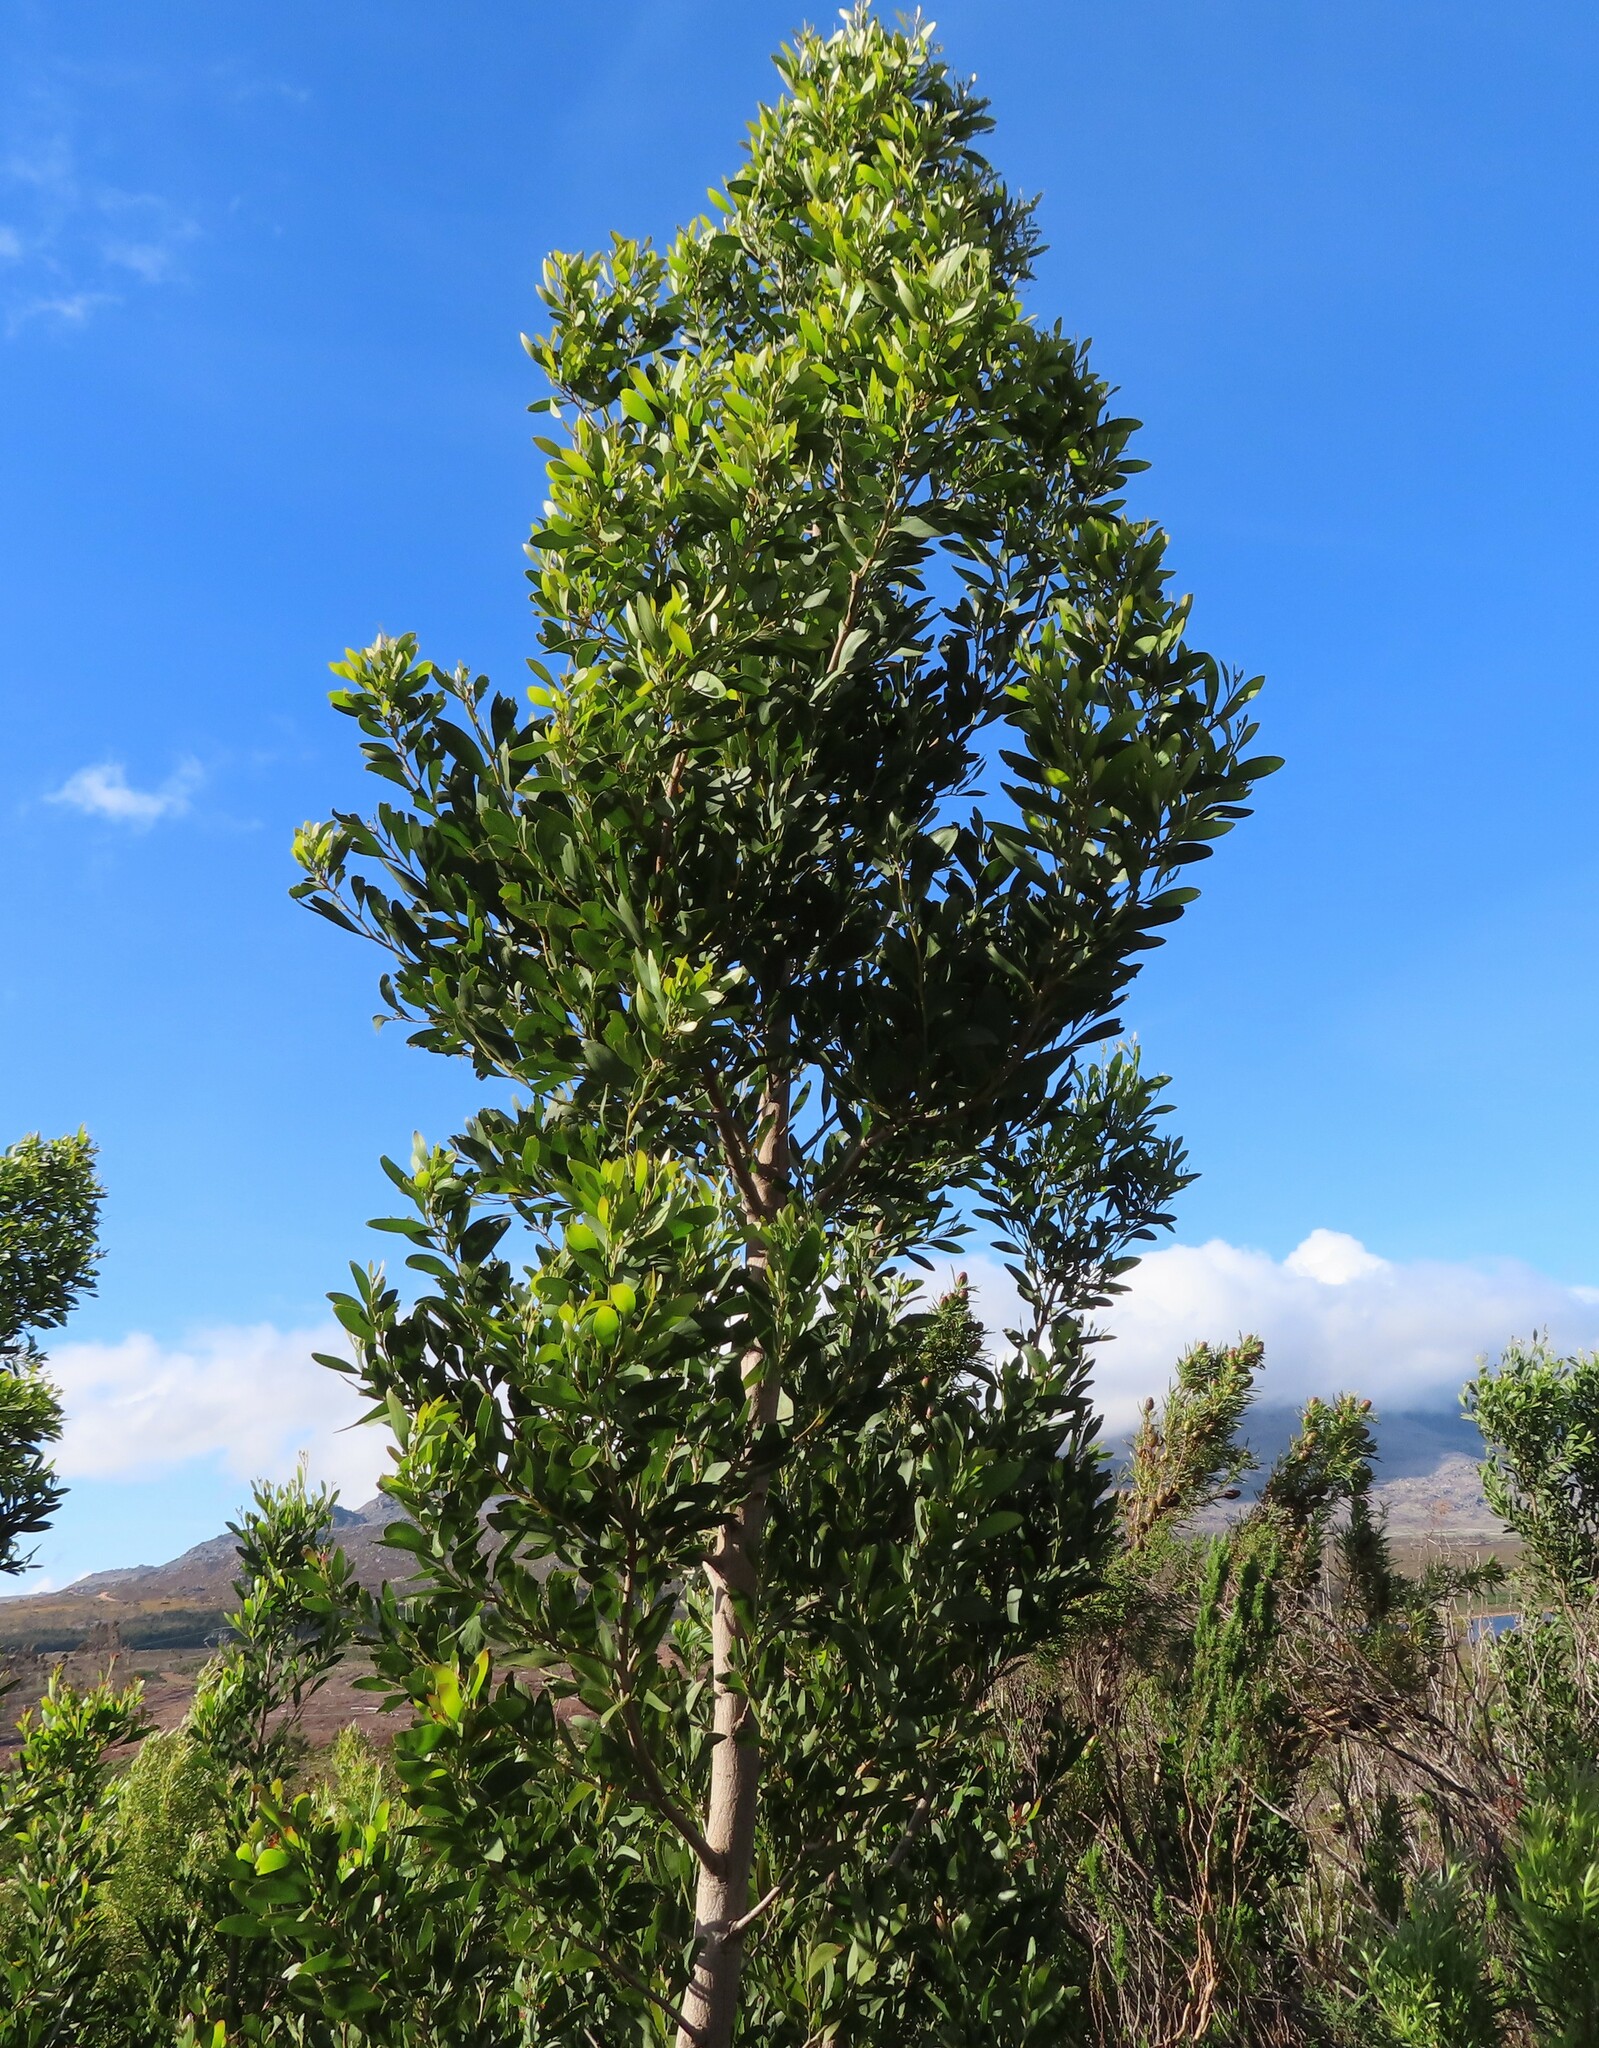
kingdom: Plantae
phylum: Tracheophyta
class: Magnoliopsida
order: Fabales
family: Fabaceae
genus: Acacia
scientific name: Acacia melanoxylon
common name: Blackwood
